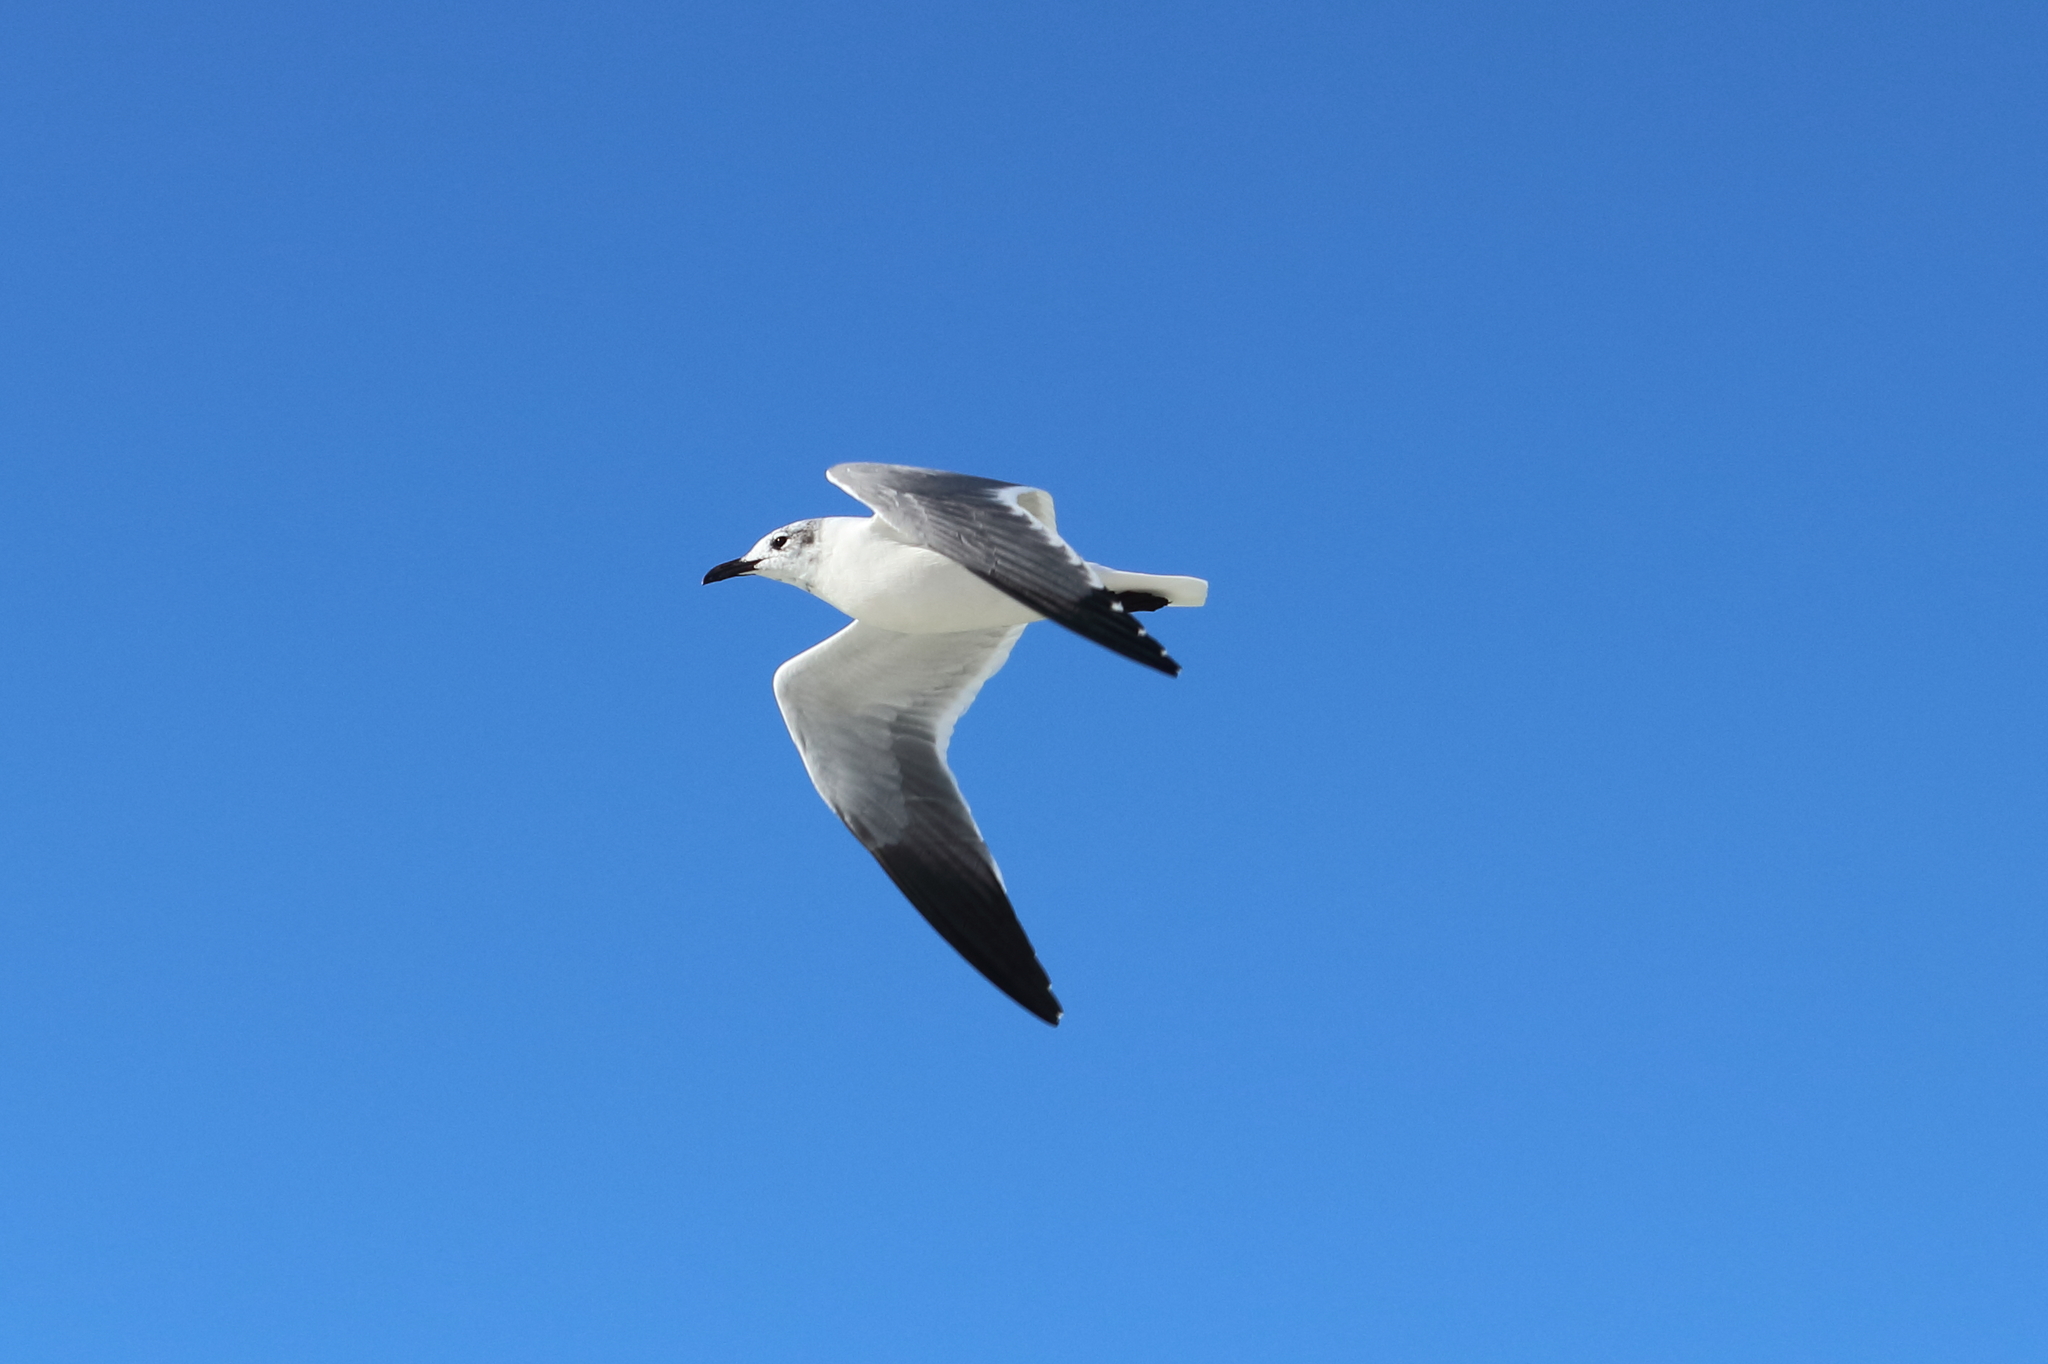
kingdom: Animalia
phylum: Chordata
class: Aves
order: Charadriiformes
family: Laridae
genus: Leucophaeus
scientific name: Leucophaeus atricilla
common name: Laughing gull
